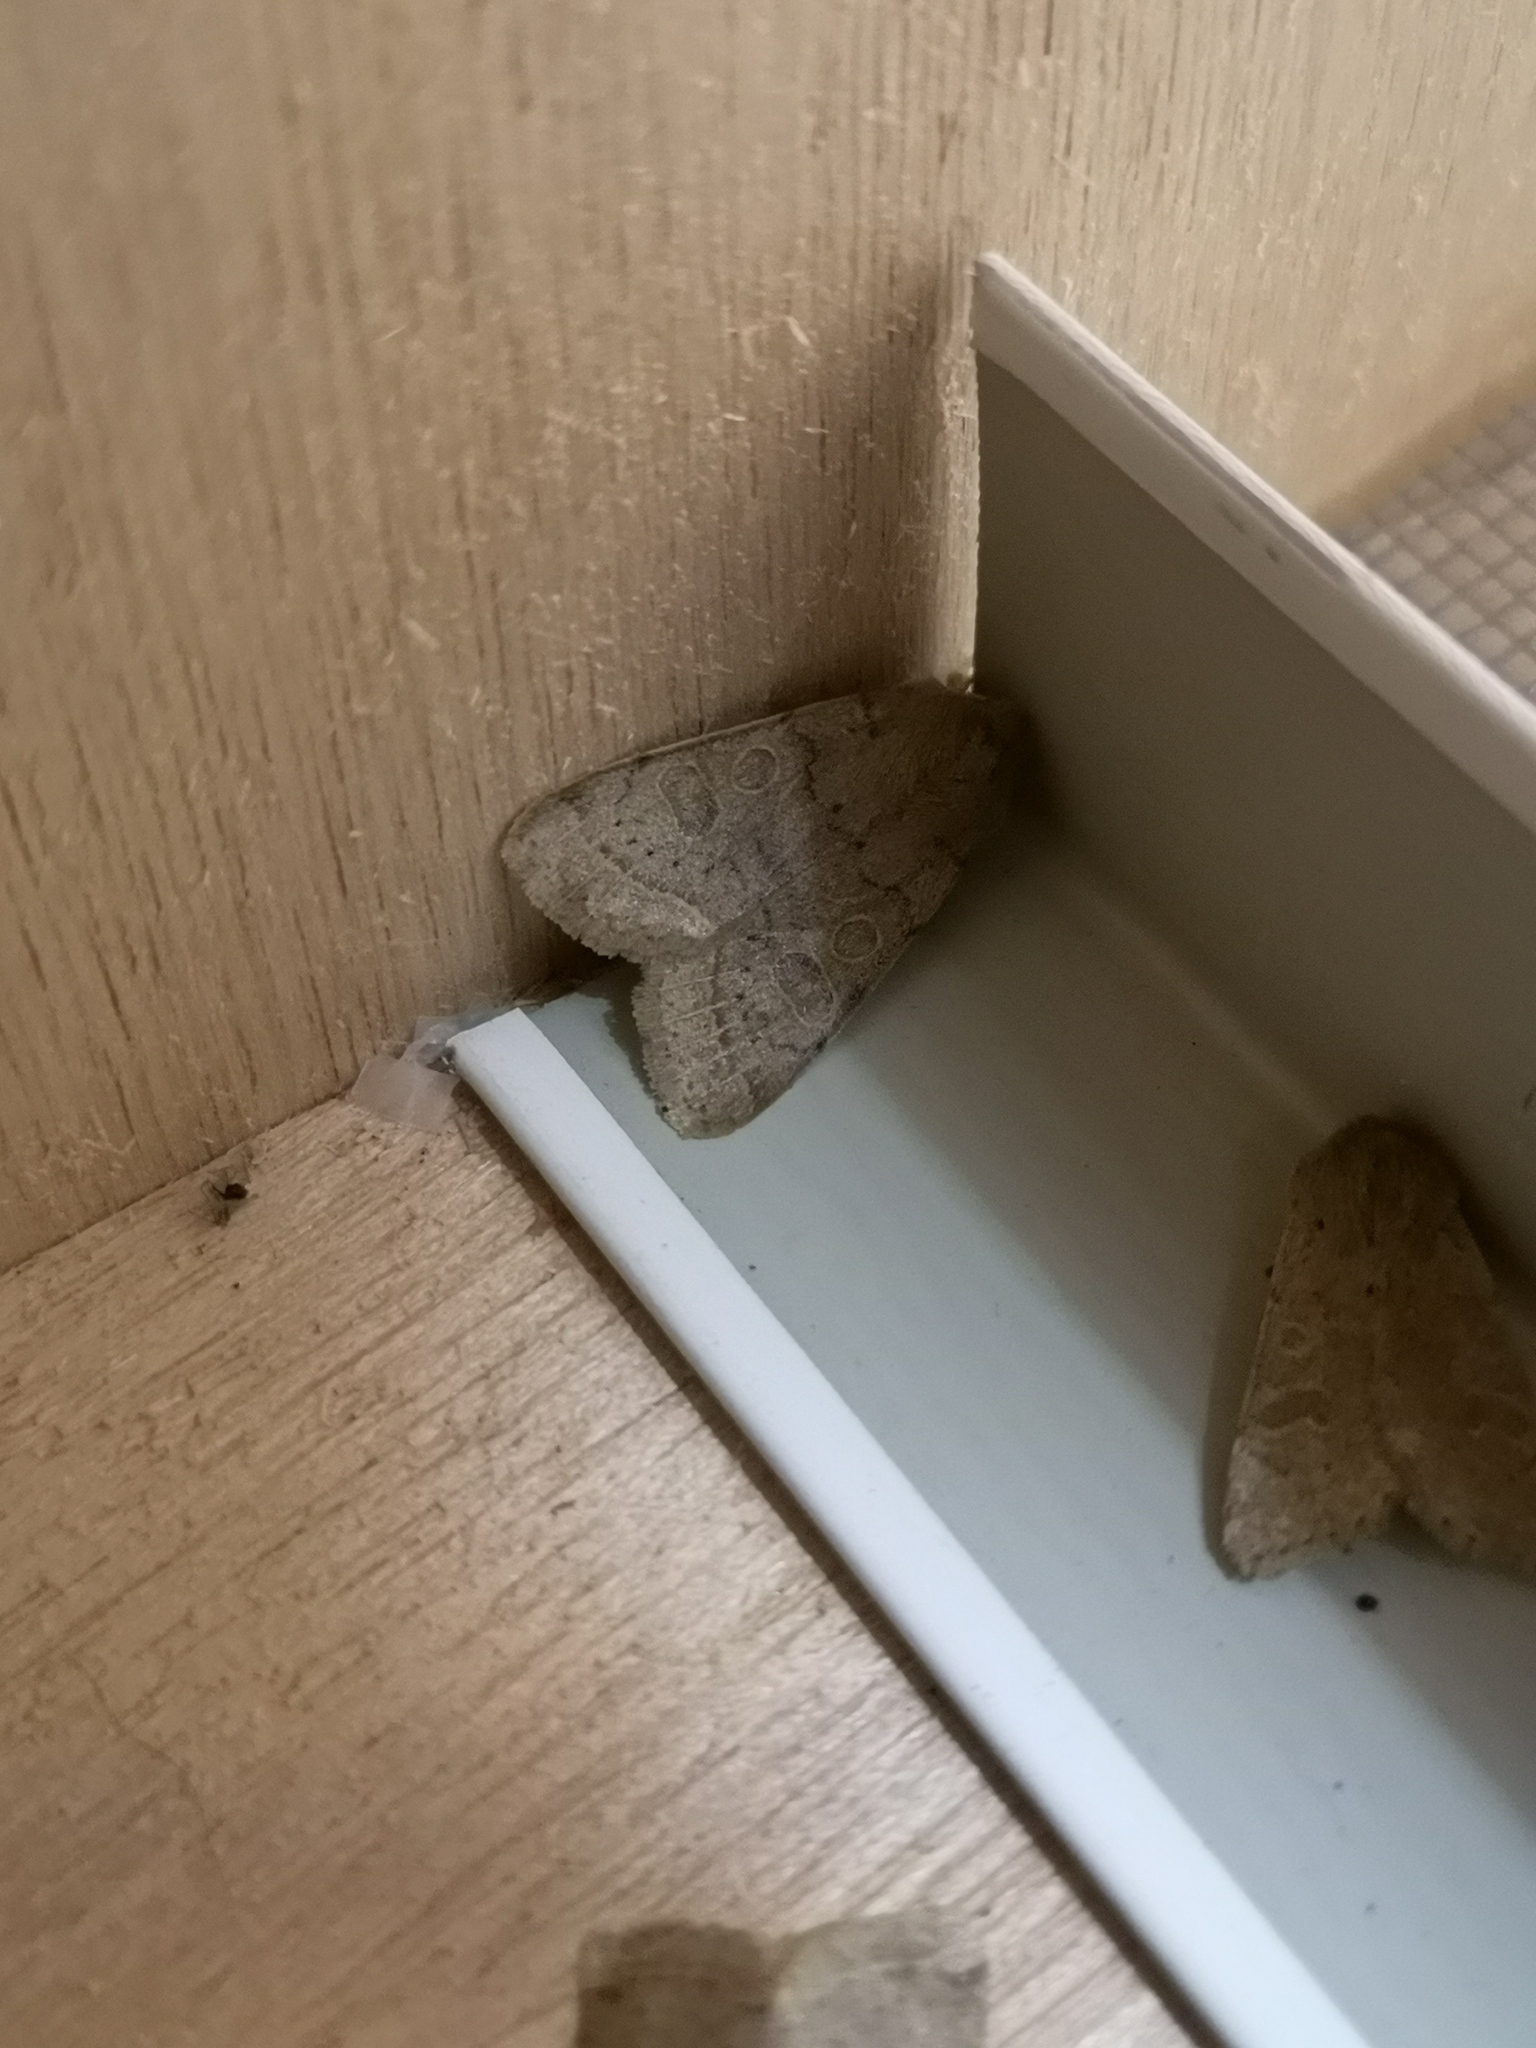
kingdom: Animalia
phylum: Arthropoda
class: Insecta
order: Lepidoptera
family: Noctuidae
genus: Orthosia
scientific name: Orthosia cerasi
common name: Common quaker
